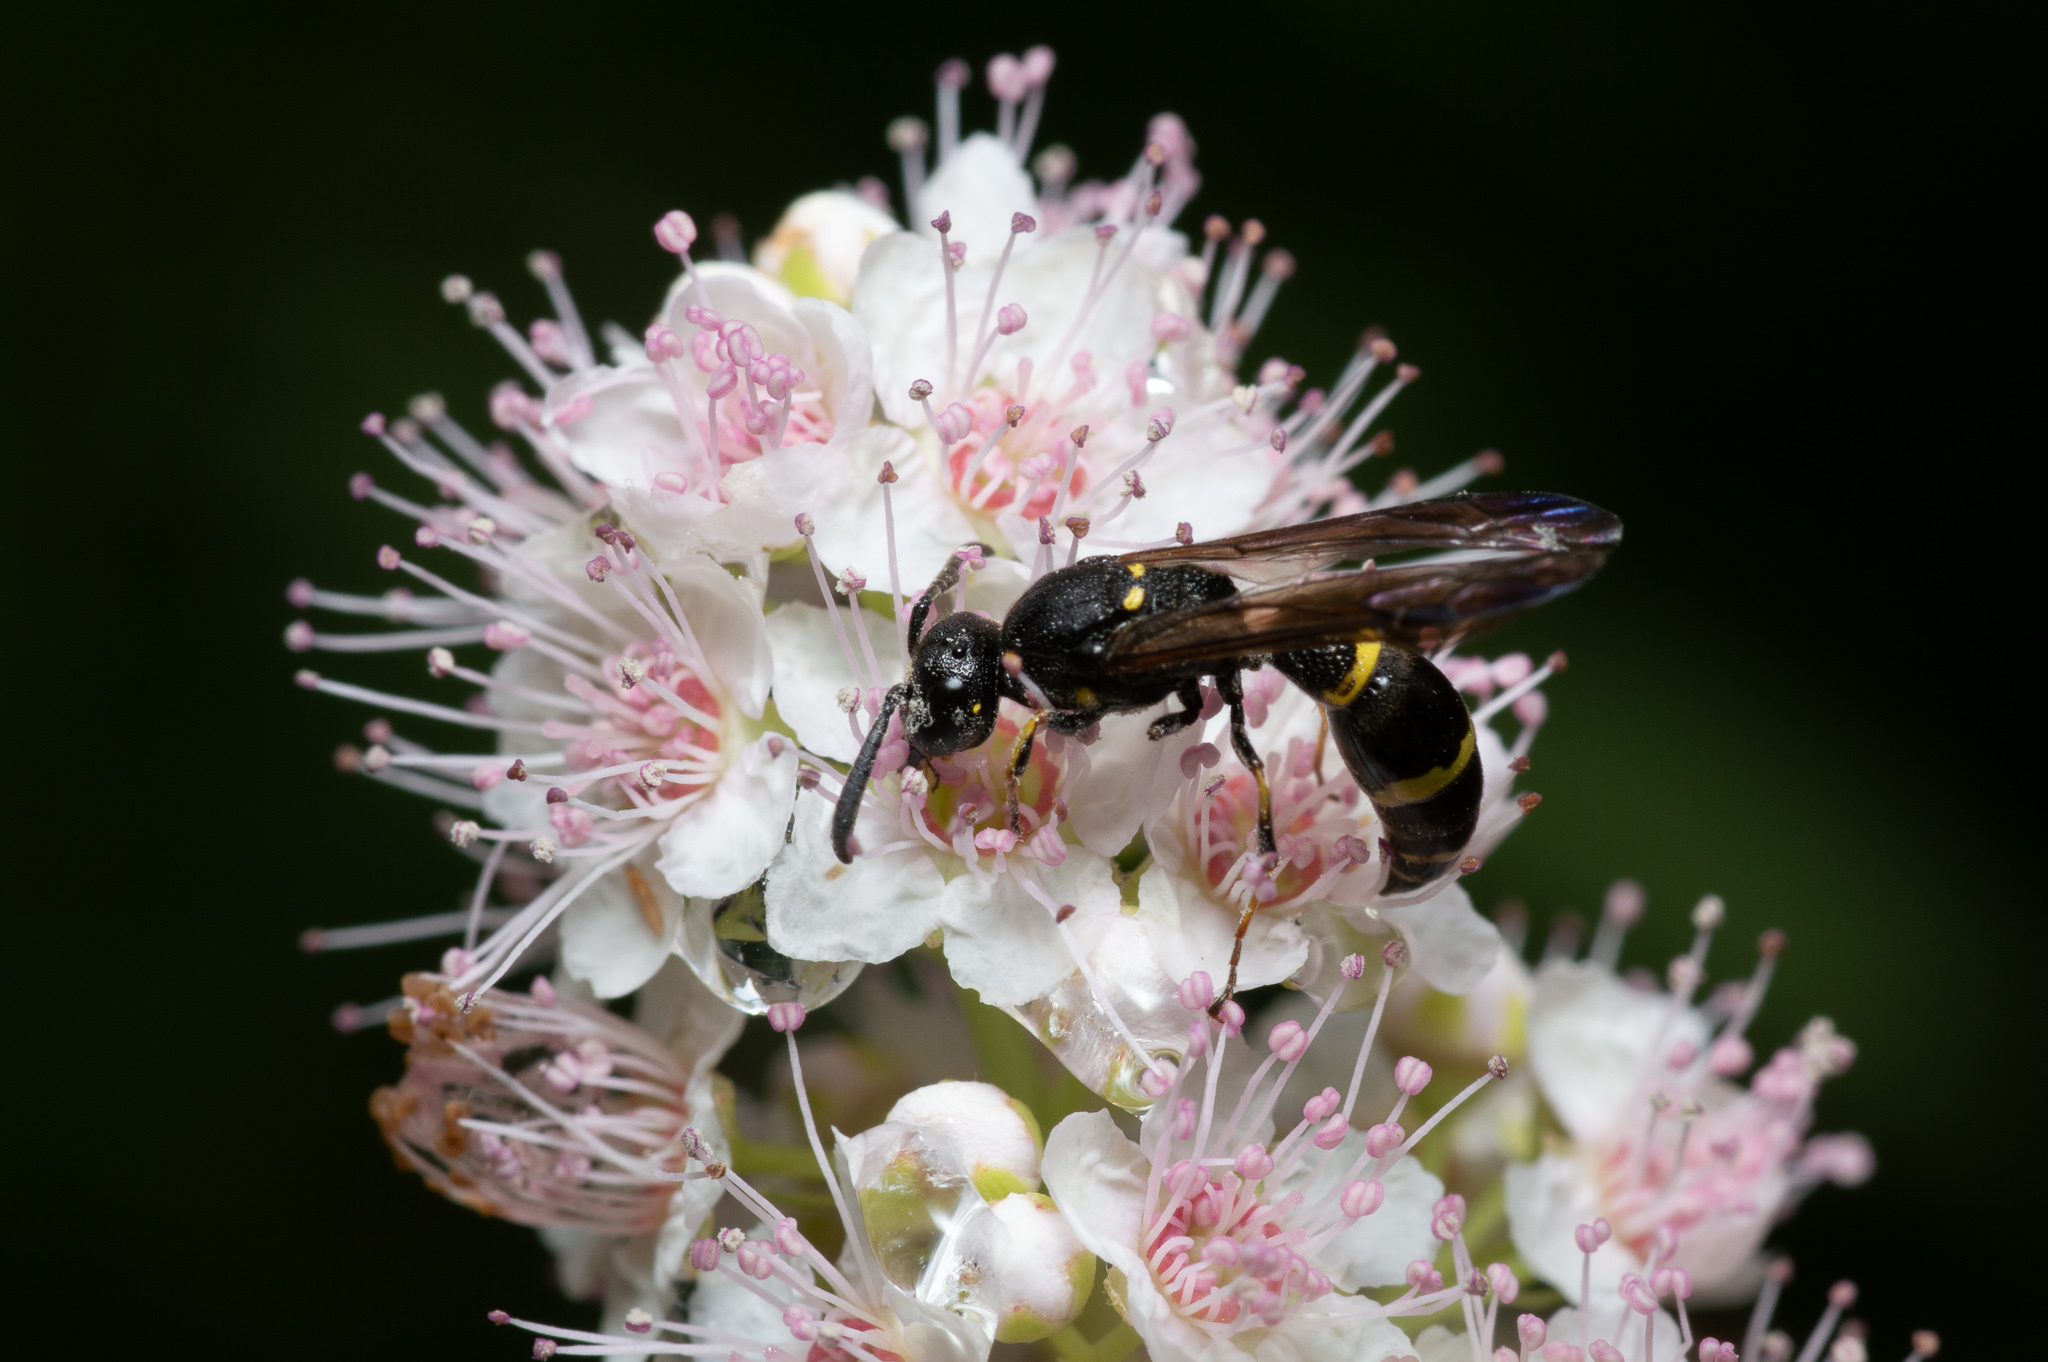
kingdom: Animalia
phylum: Arthropoda
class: Insecta
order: Hymenoptera
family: Eumenidae
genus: Symmorphus
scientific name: Symmorphus
